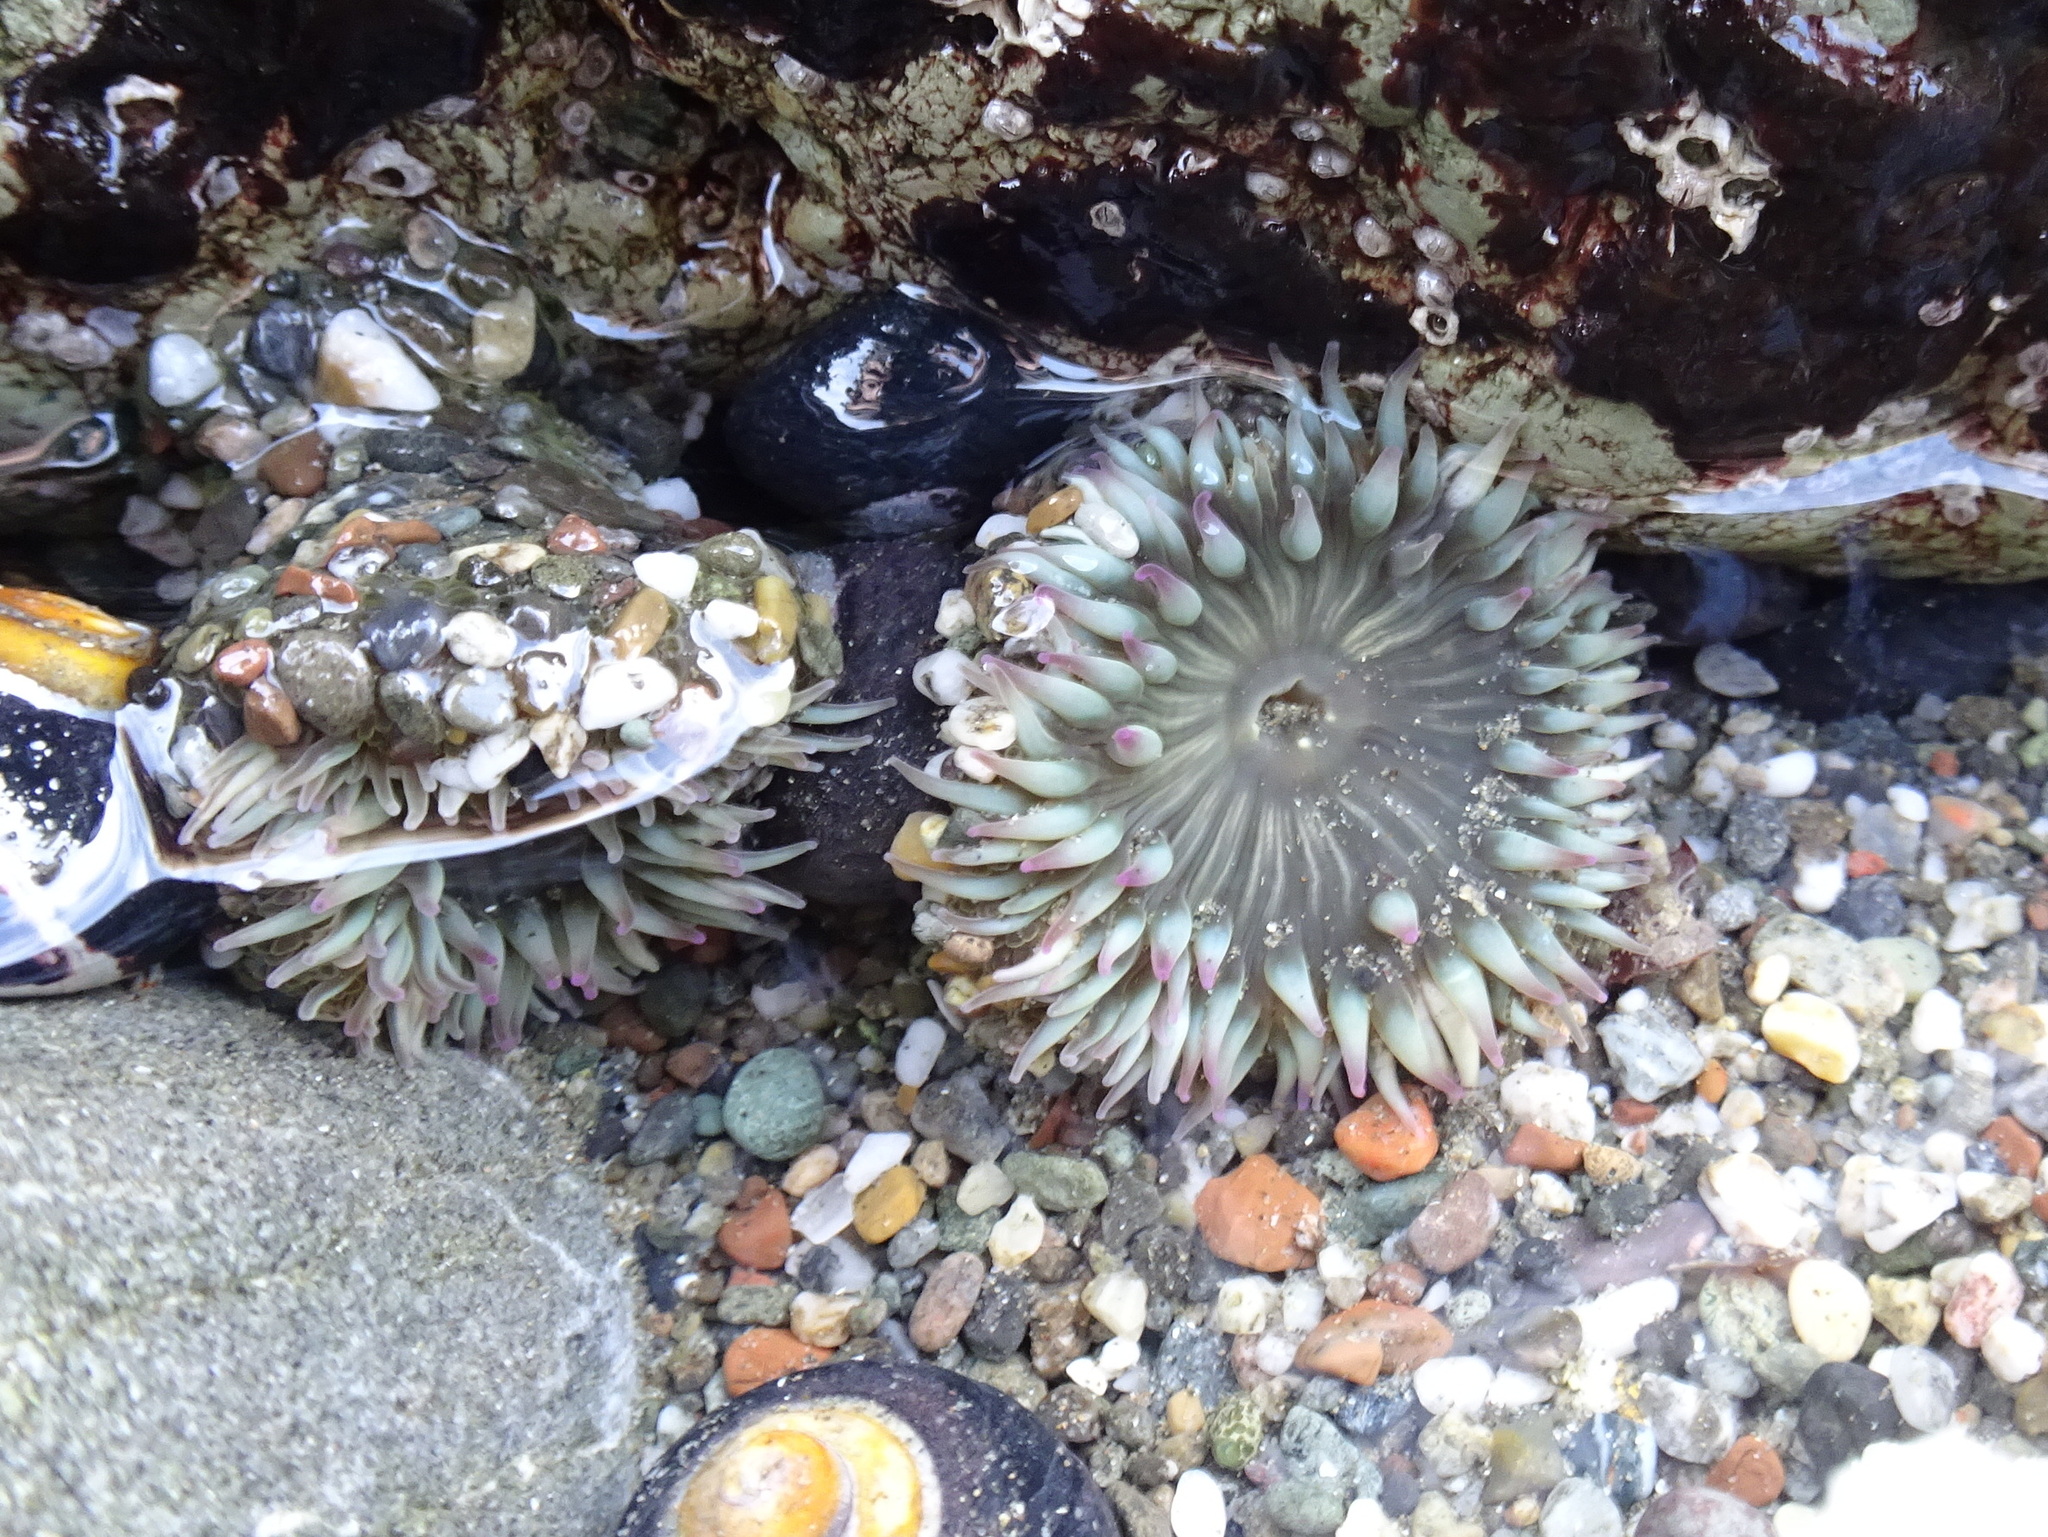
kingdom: Animalia
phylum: Cnidaria
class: Anthozoa
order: Actiniaria
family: Actiniidae
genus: Anthopleura
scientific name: Anthopleura elegantissima
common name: Clonal anemone
